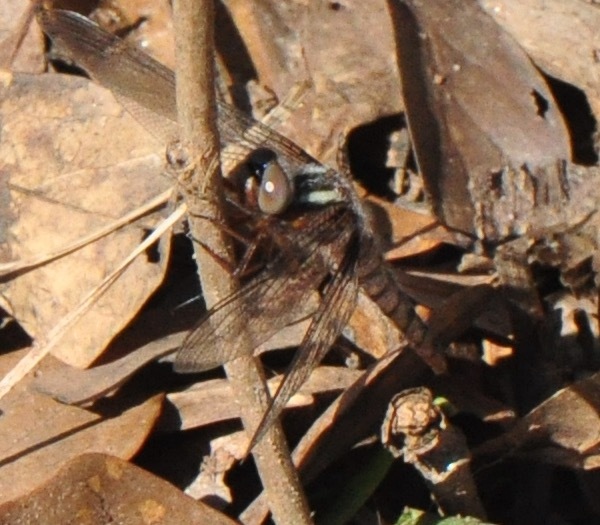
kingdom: Animalia
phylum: Arthropoda
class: Insecta
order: Odonata
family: Libellulidae
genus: Ladona
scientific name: Ladona deplanata
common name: Blue corporal
